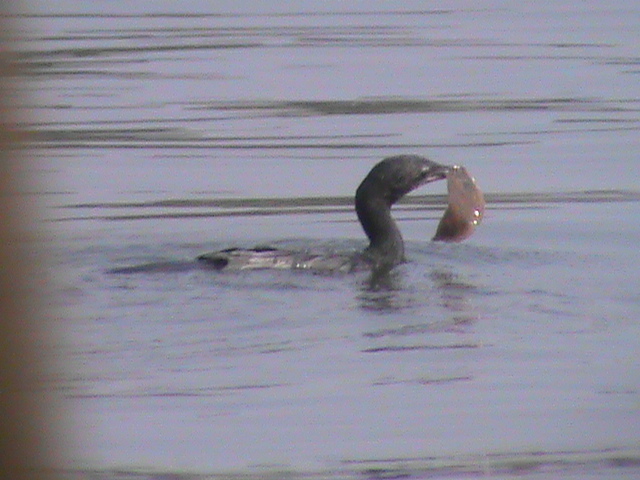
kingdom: Animalia
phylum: Chordata
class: Aves
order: Suliformes
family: Phalacrocoracidae
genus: Microcarbo
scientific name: Microcarbo niger
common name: Little cormorant
